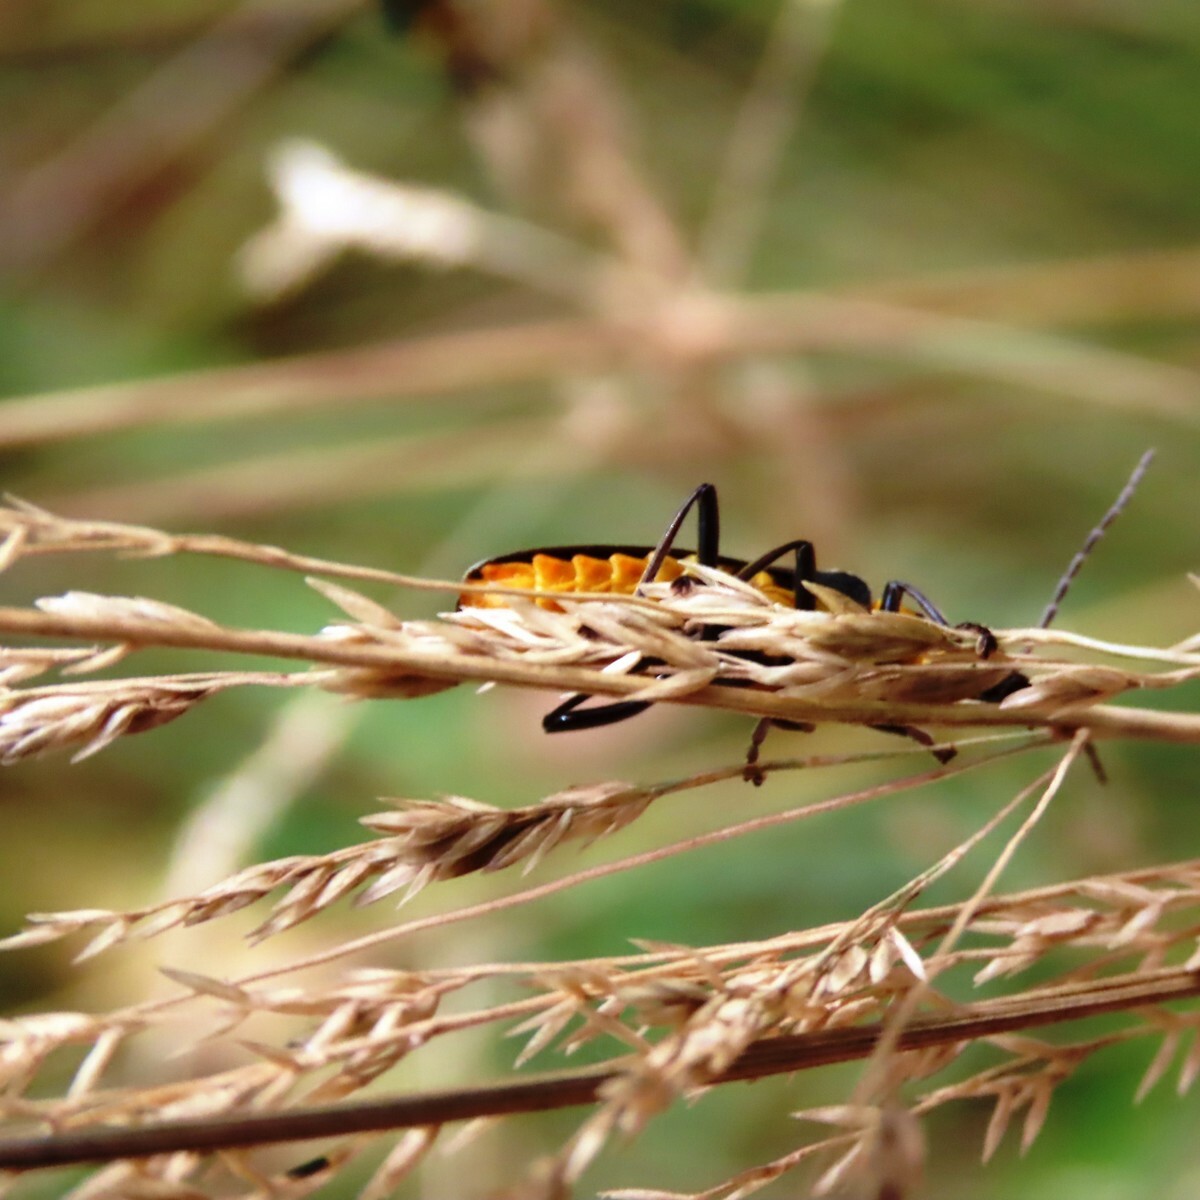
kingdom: Animalia
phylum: Arthropoda
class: Insecta
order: Coleoptera
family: Cantharidae
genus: Chauliognathus
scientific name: Chauliognathus
